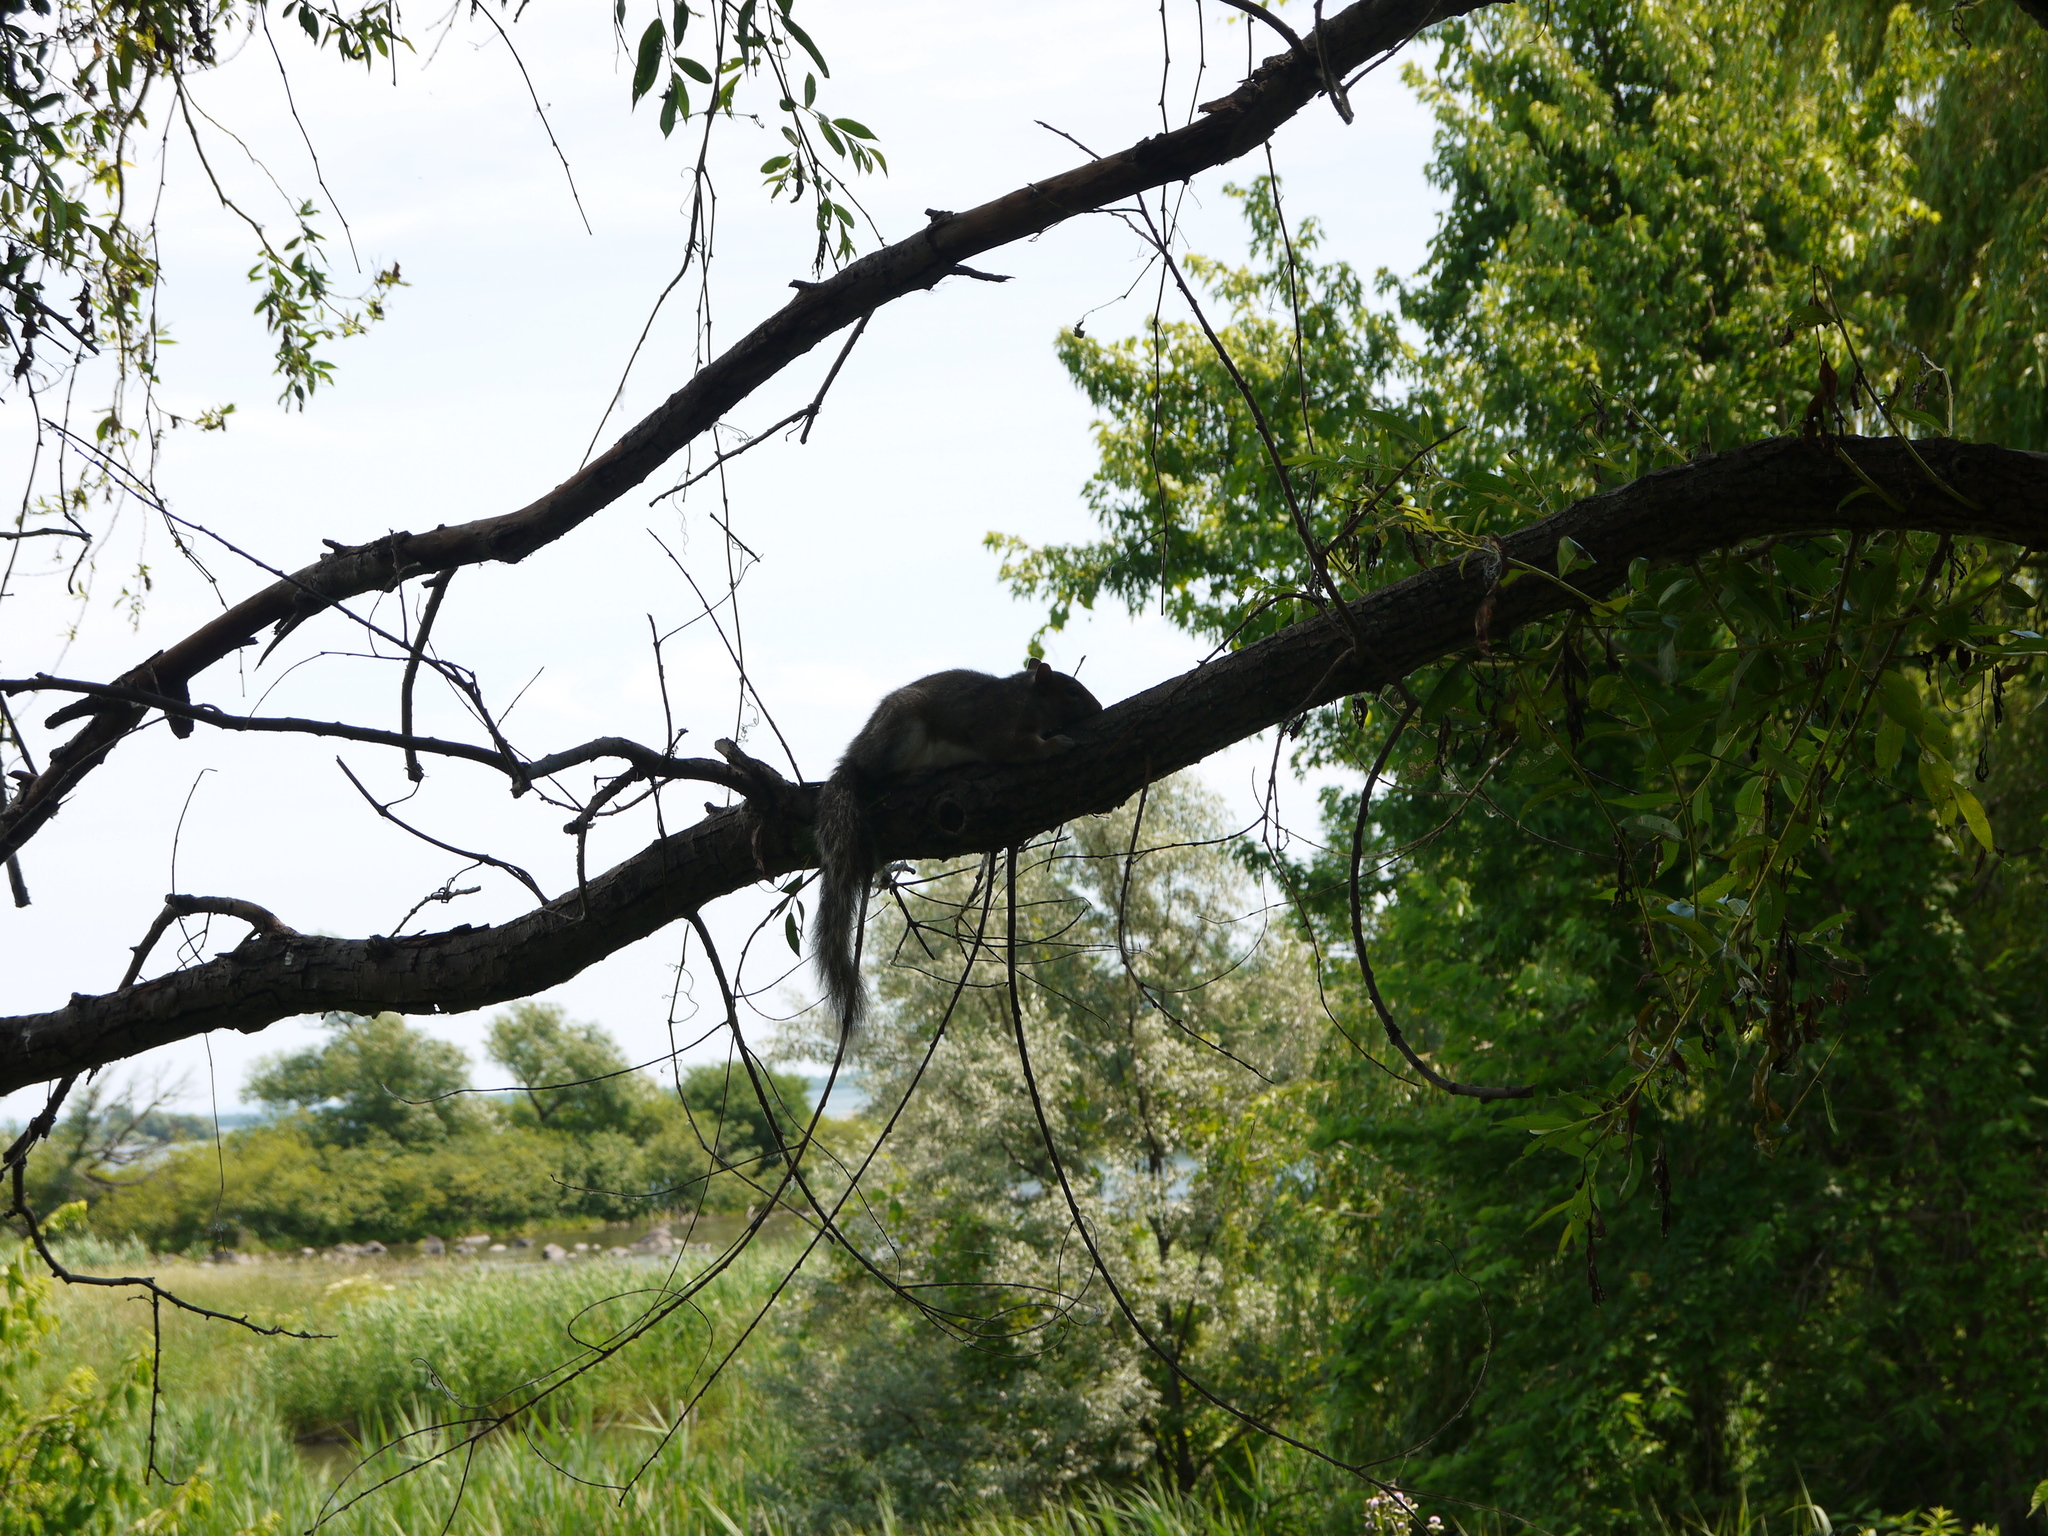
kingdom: Animalia
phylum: Chordata
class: Mammalia
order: Rodentia
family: Sciuridae
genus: Sciurus
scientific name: Sciurus carolinensis
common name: Eastern gray squirrel
